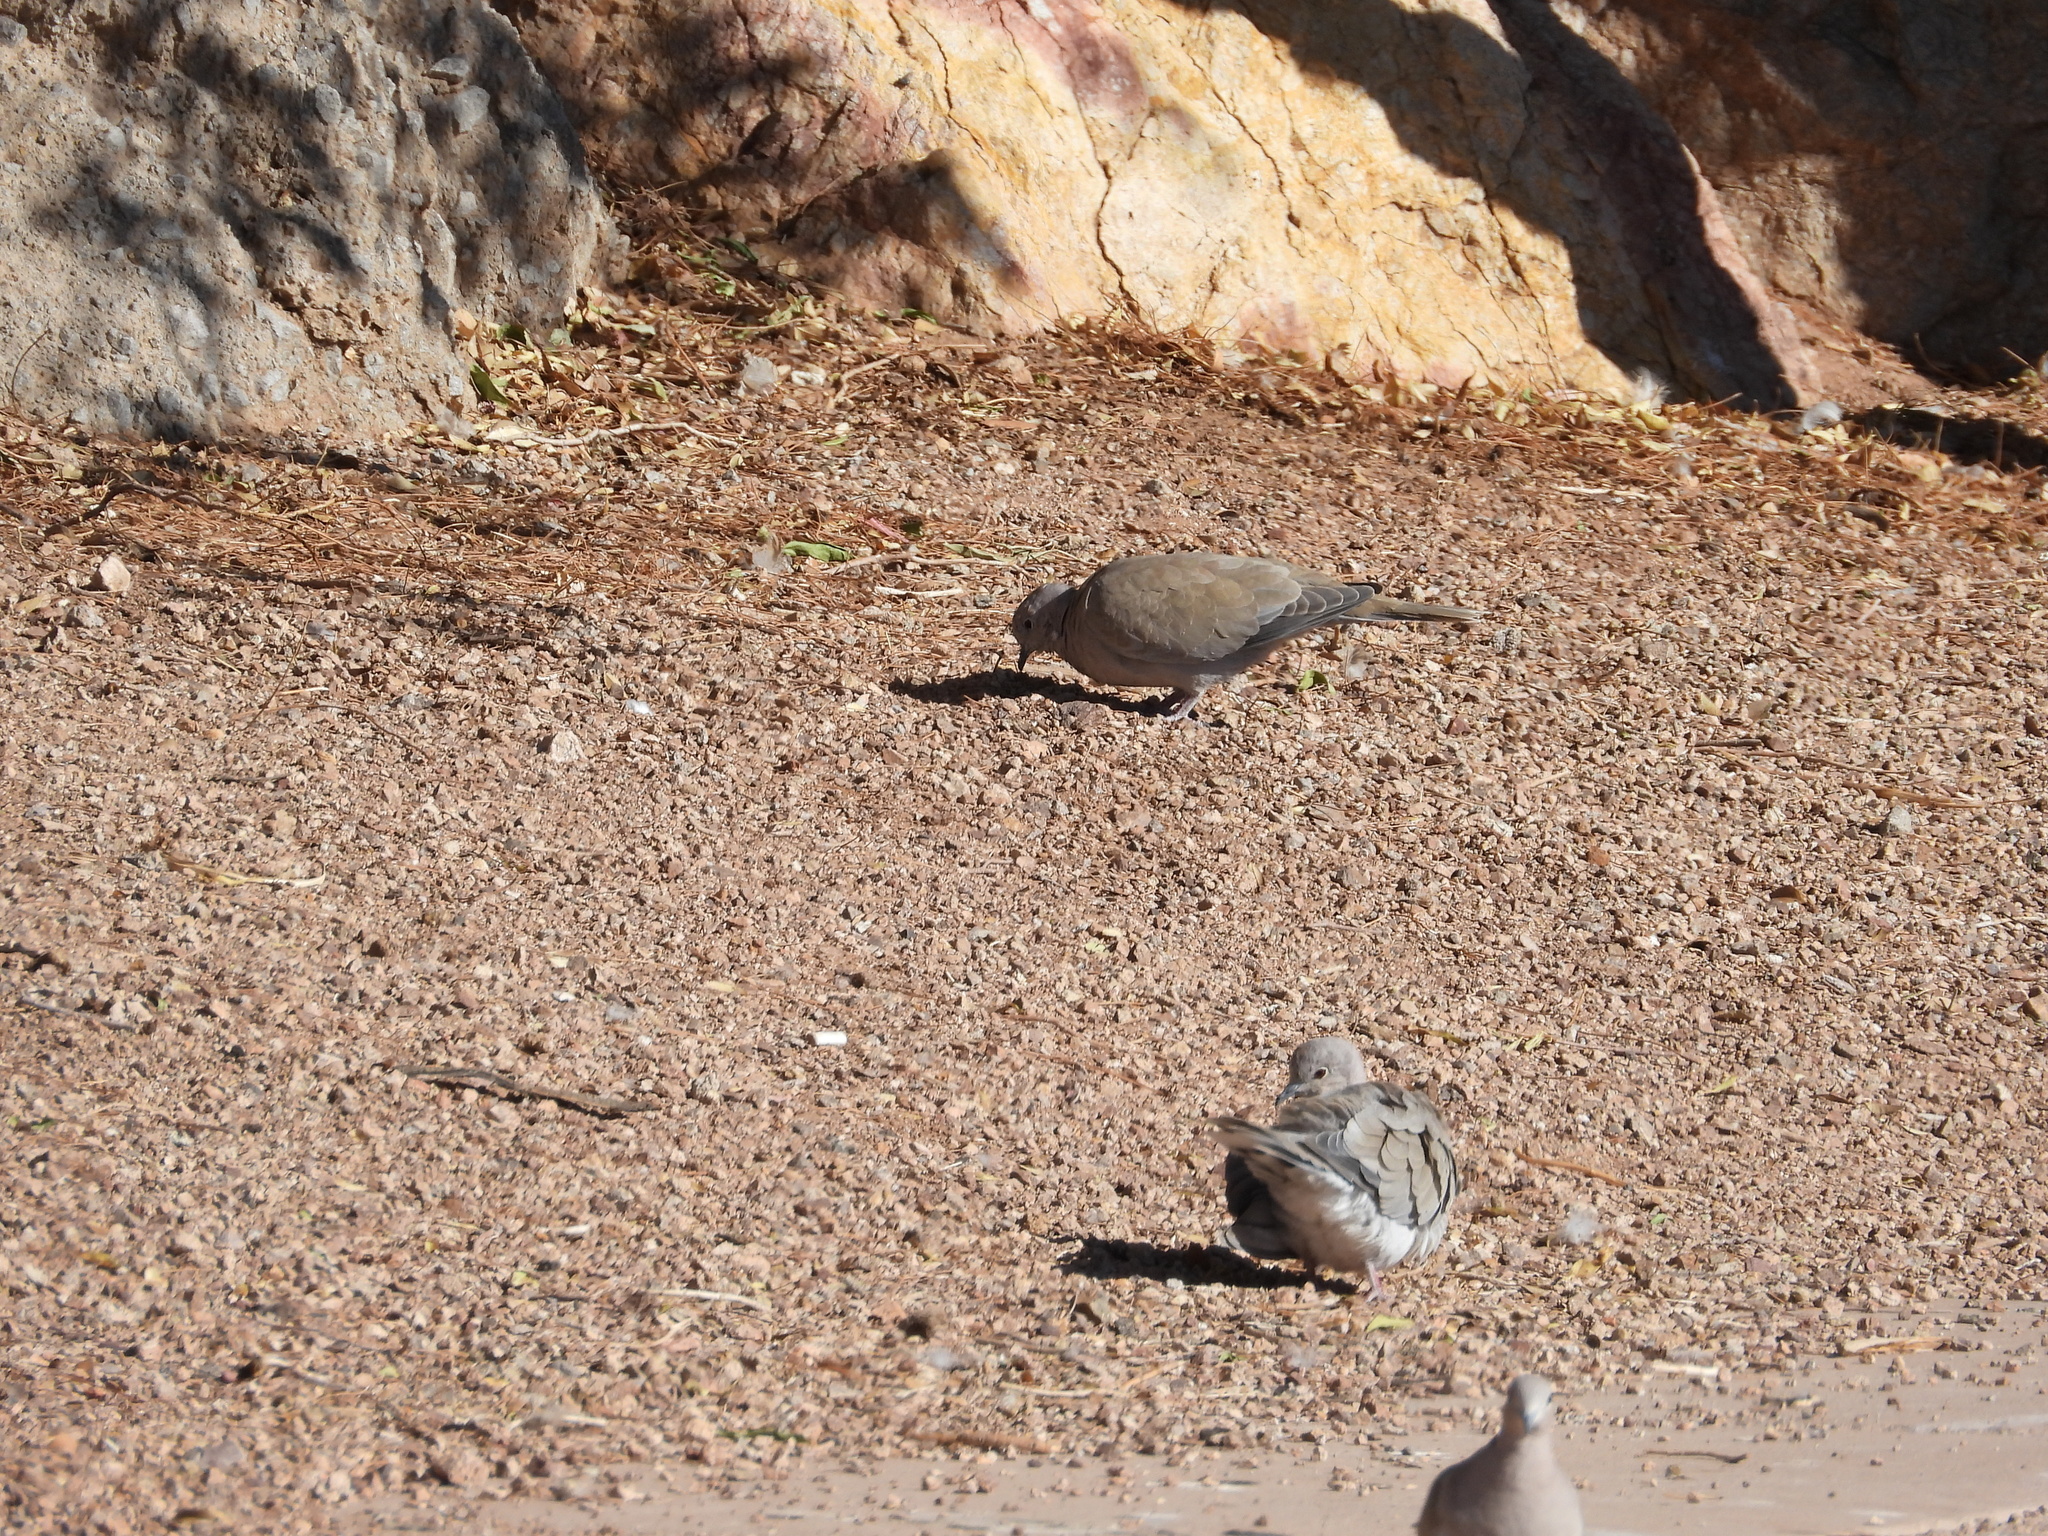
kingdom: Animalia
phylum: Chordata
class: Aves
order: Columbiformes
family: Columbidae
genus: Zenaida
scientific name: Zenaida macroura
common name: Mourning dove
